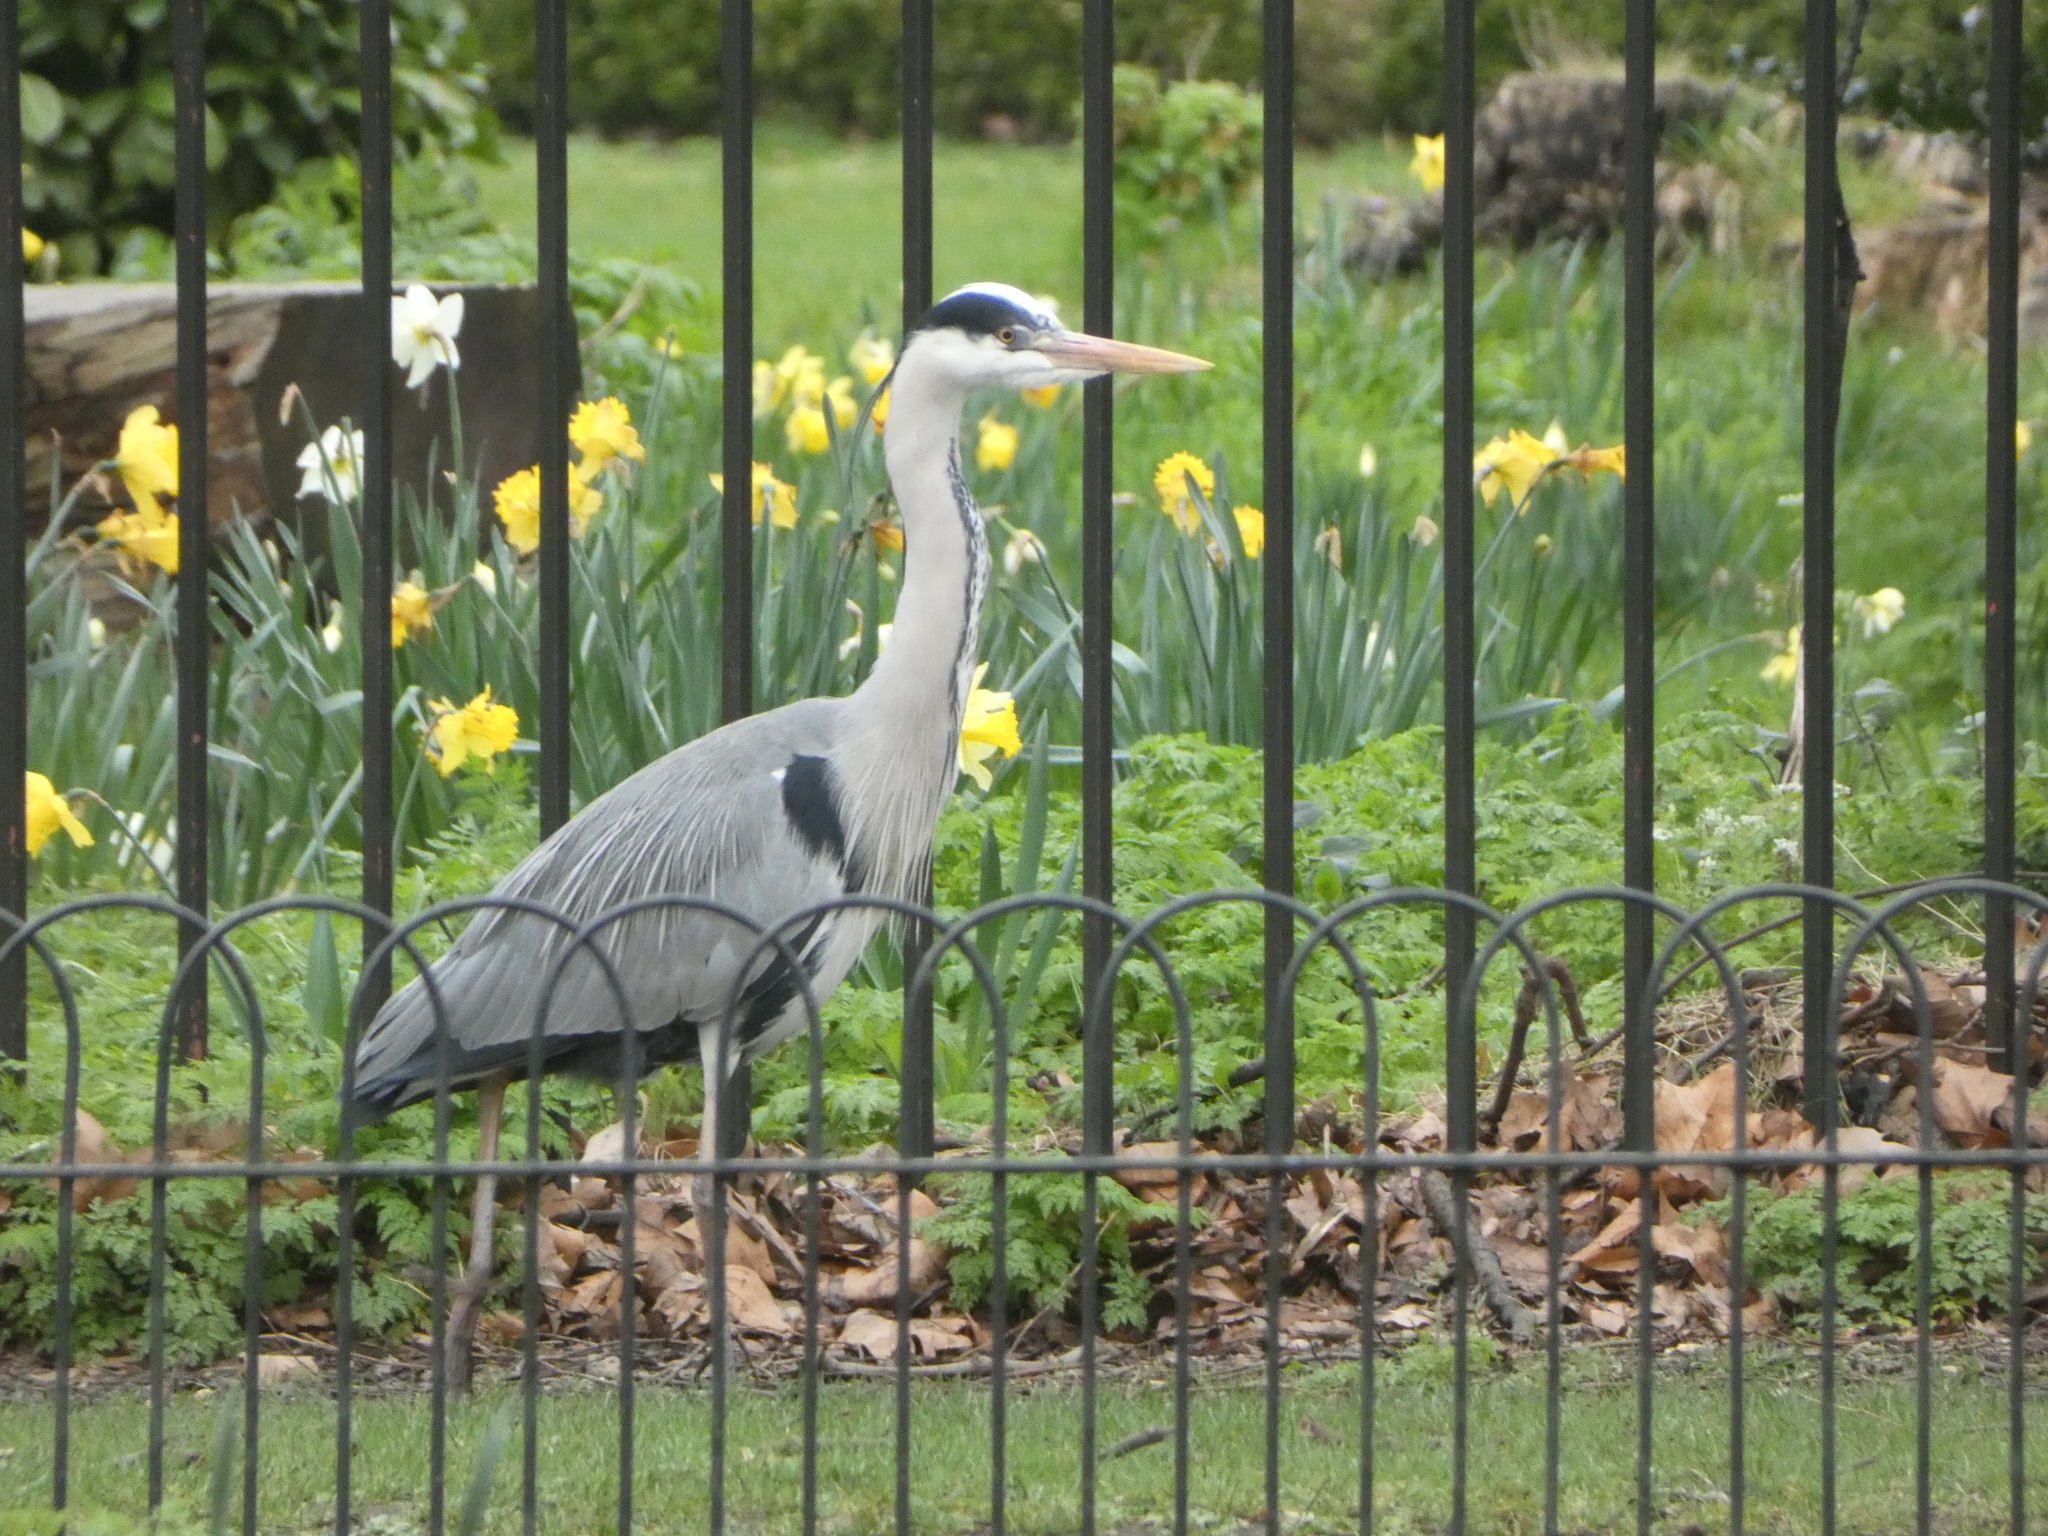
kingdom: Animalia
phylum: Chordata
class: Aves
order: Pelecaniformes
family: Ardeidae
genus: Ardea
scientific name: Ardea cinerea
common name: Grey heron
